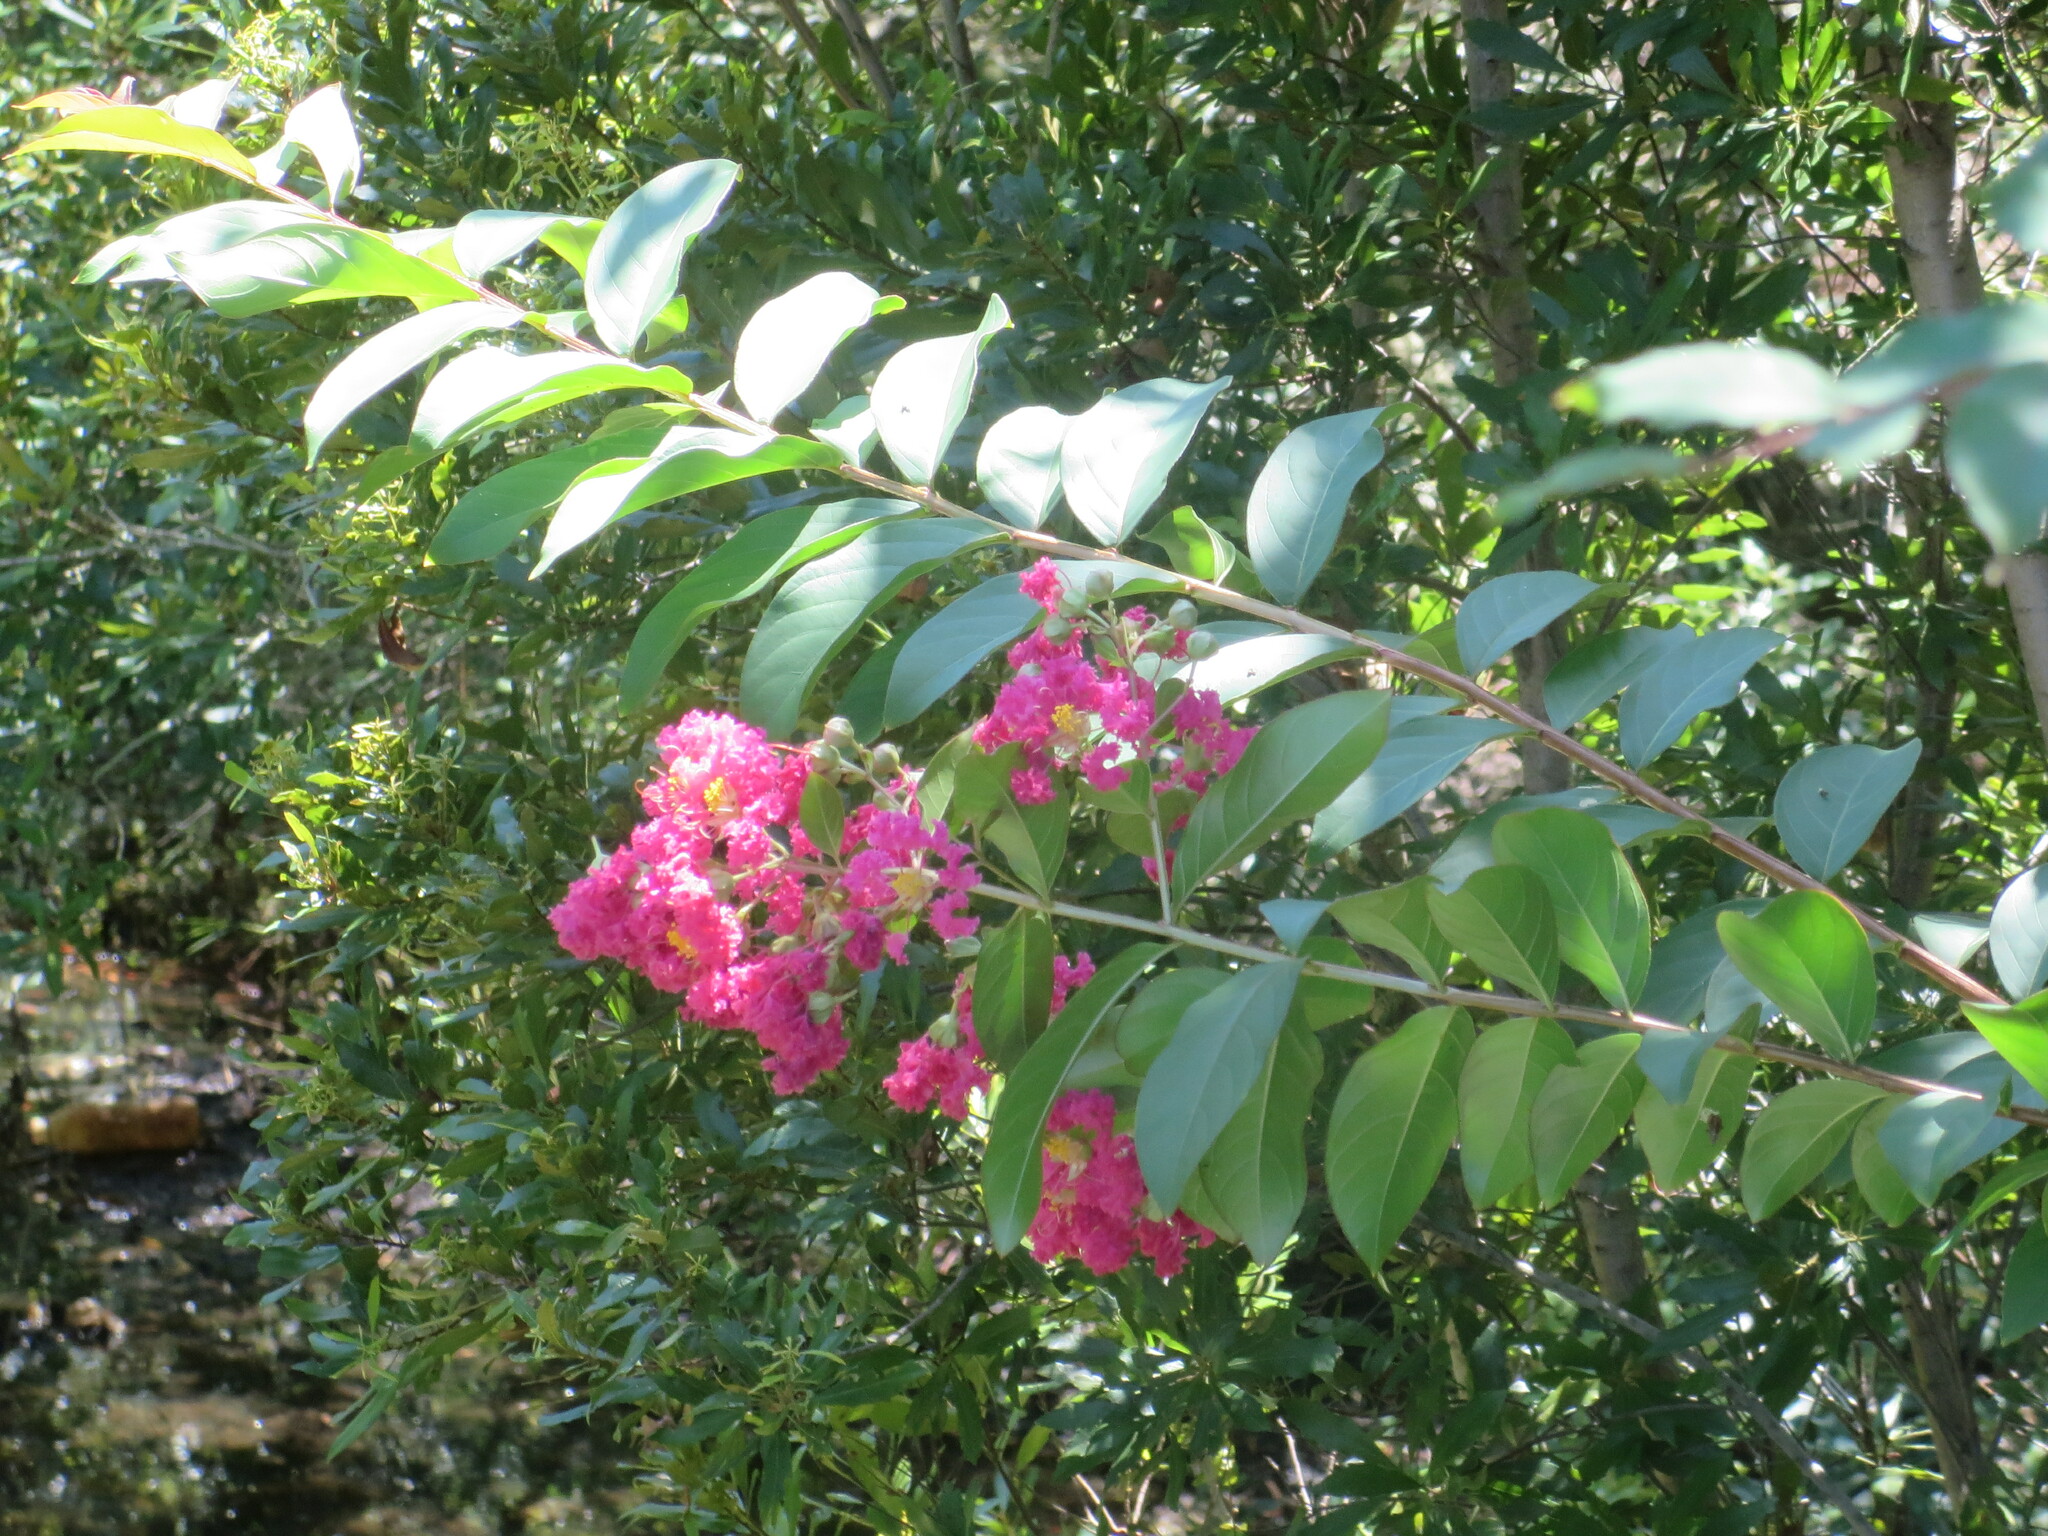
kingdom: Plantae
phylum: Tracheophyta
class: Magnoliopsida
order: Myrtales
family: Lythraceae
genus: Lagerstroemia
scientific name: Lagerstroemia indica
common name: Crape-myrtle
